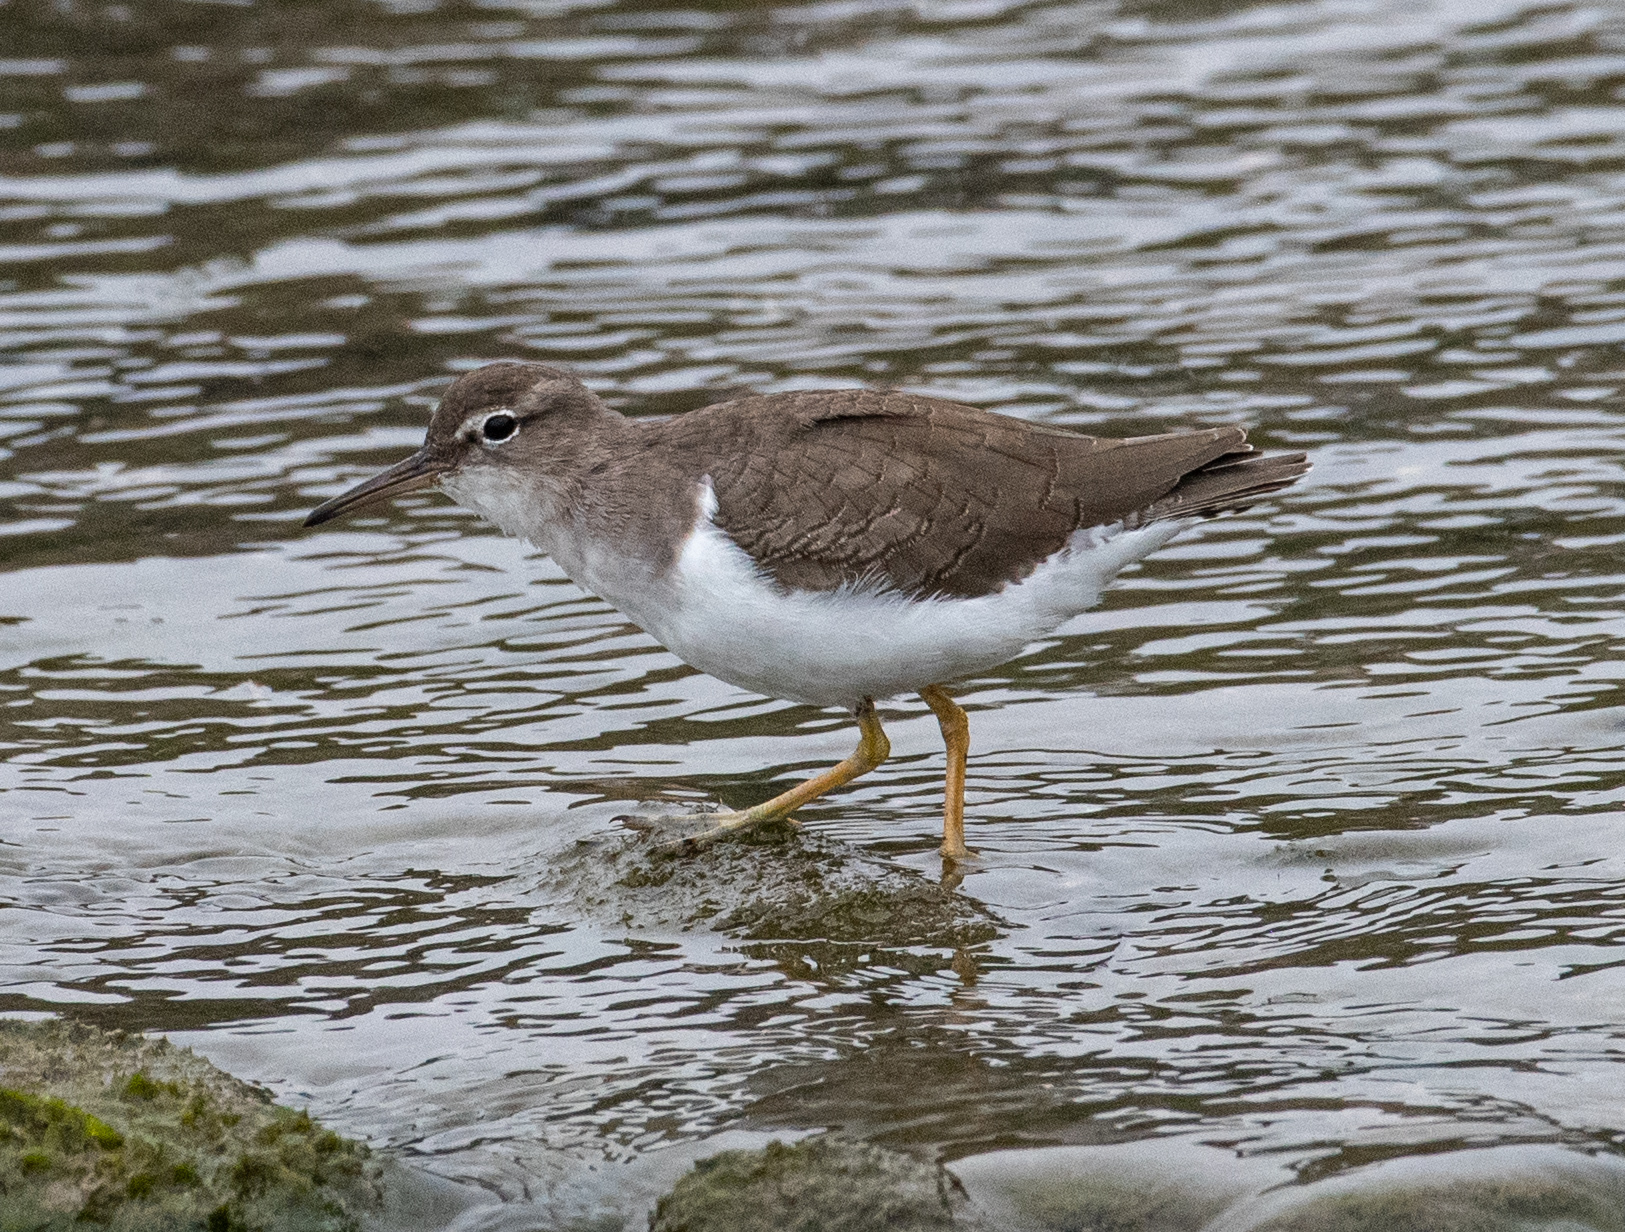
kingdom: Animalia
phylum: Chordata
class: Aves
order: Charadriiformes
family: Scolopacidae
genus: Actitis
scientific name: Actitis macularius
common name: Spotted sandpiper
